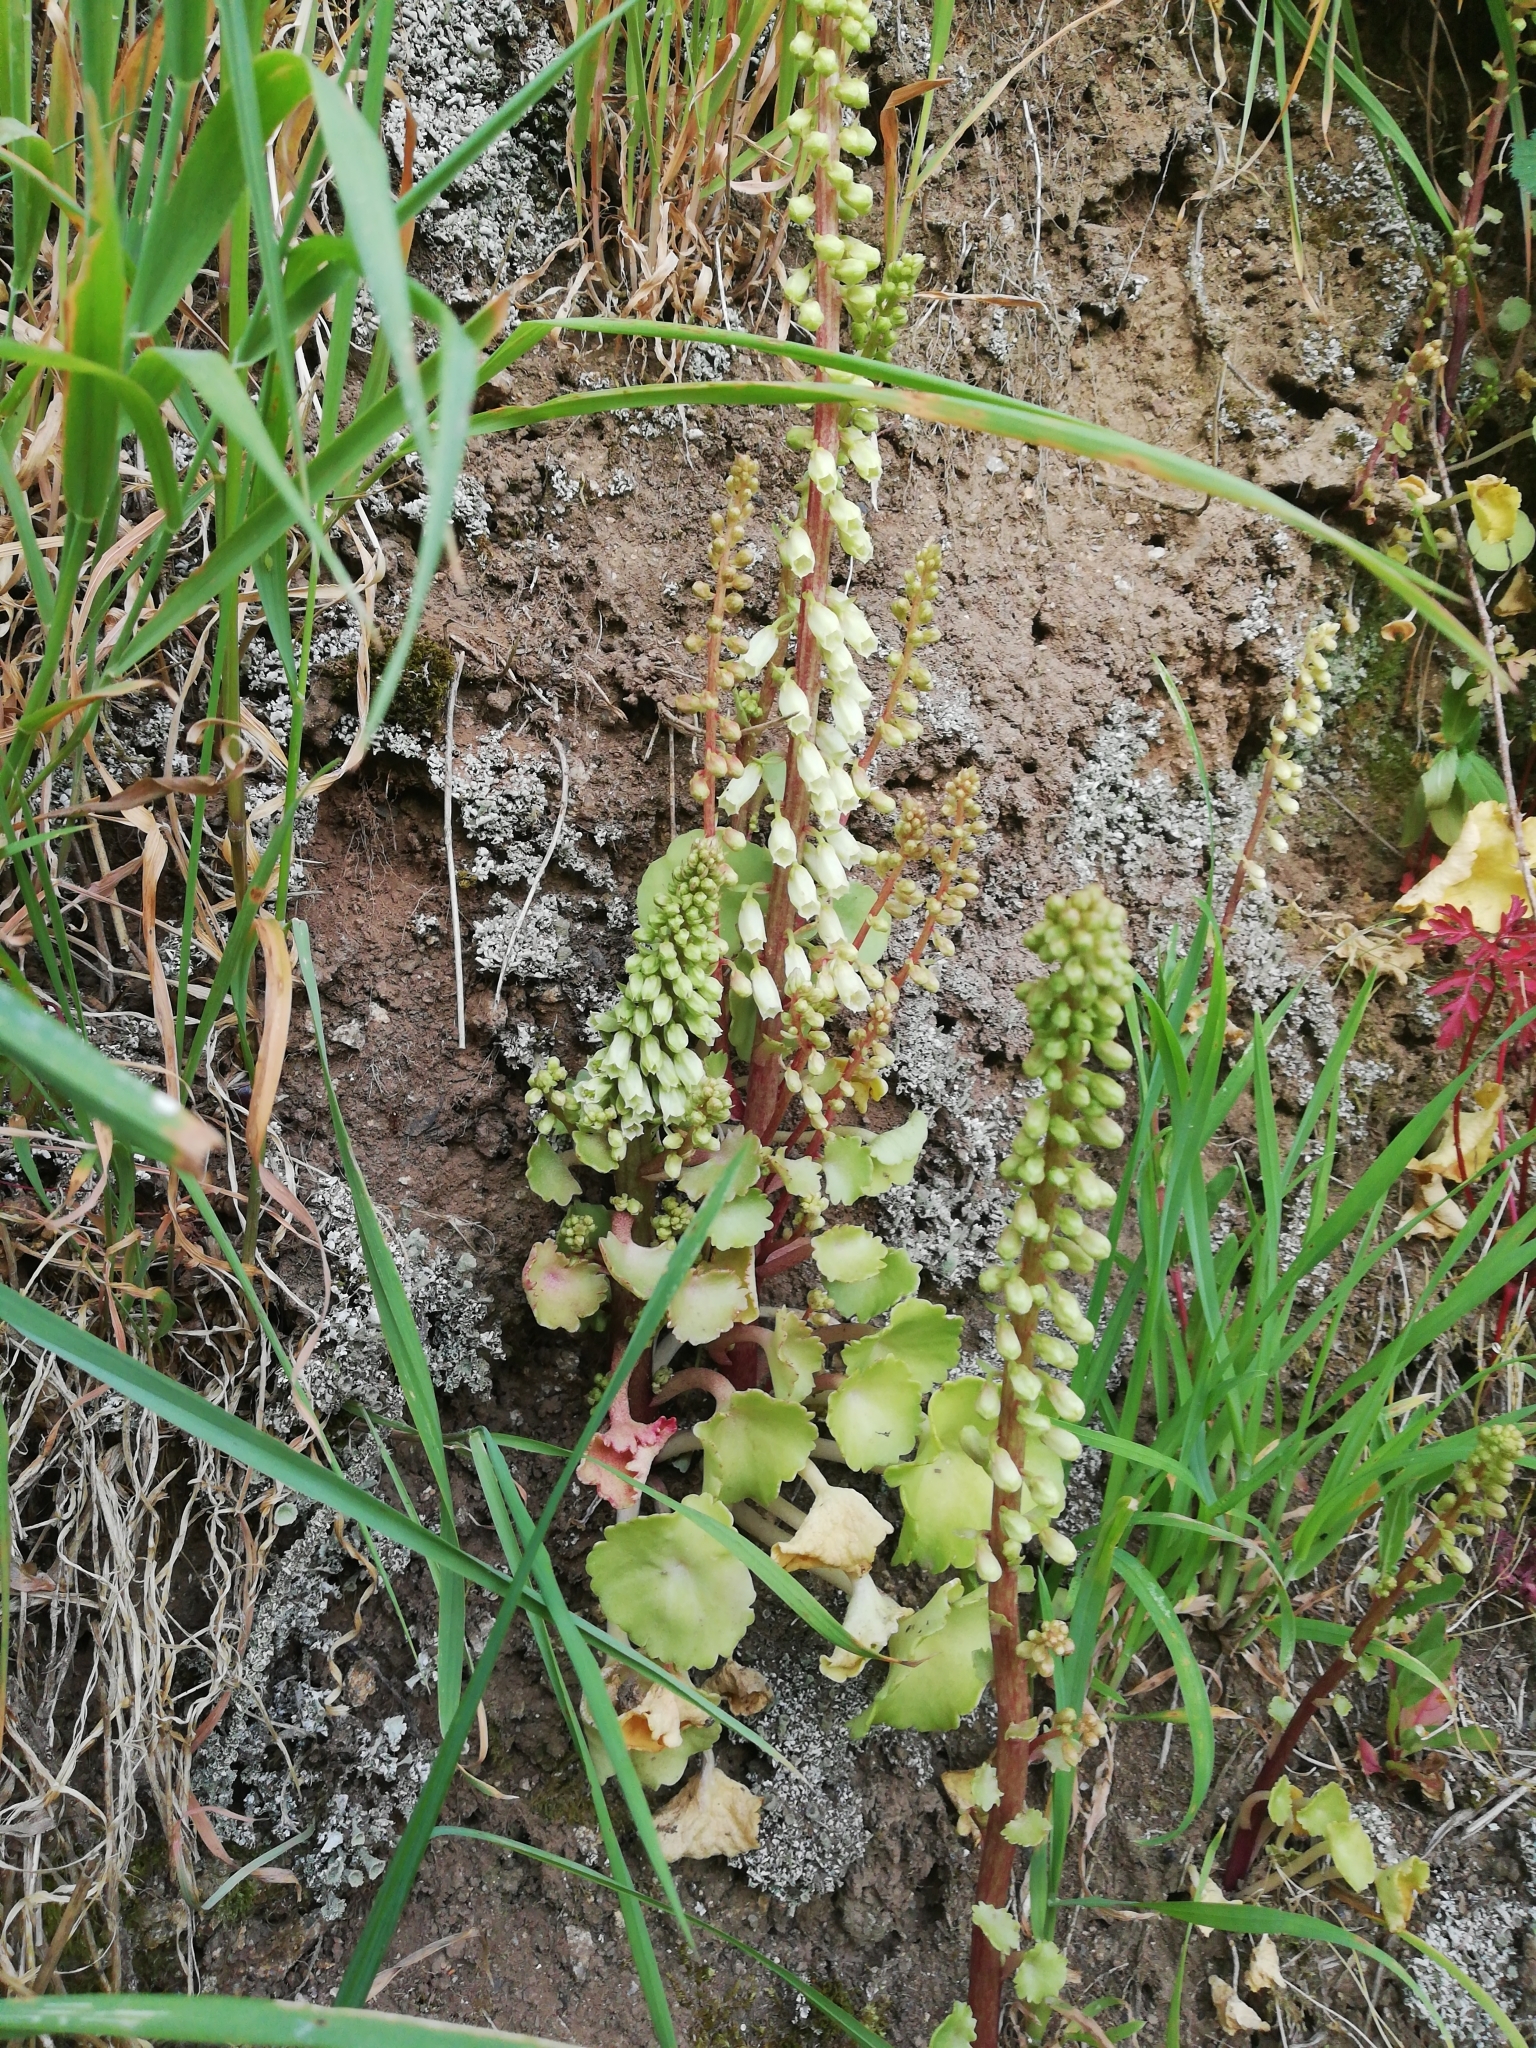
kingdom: Plantae
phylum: Tracheophyta
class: Magnoliopsida
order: Saxifragales
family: Crassulaceae
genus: Umbilicus
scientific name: Umbilicus rupestris
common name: Navelwort
